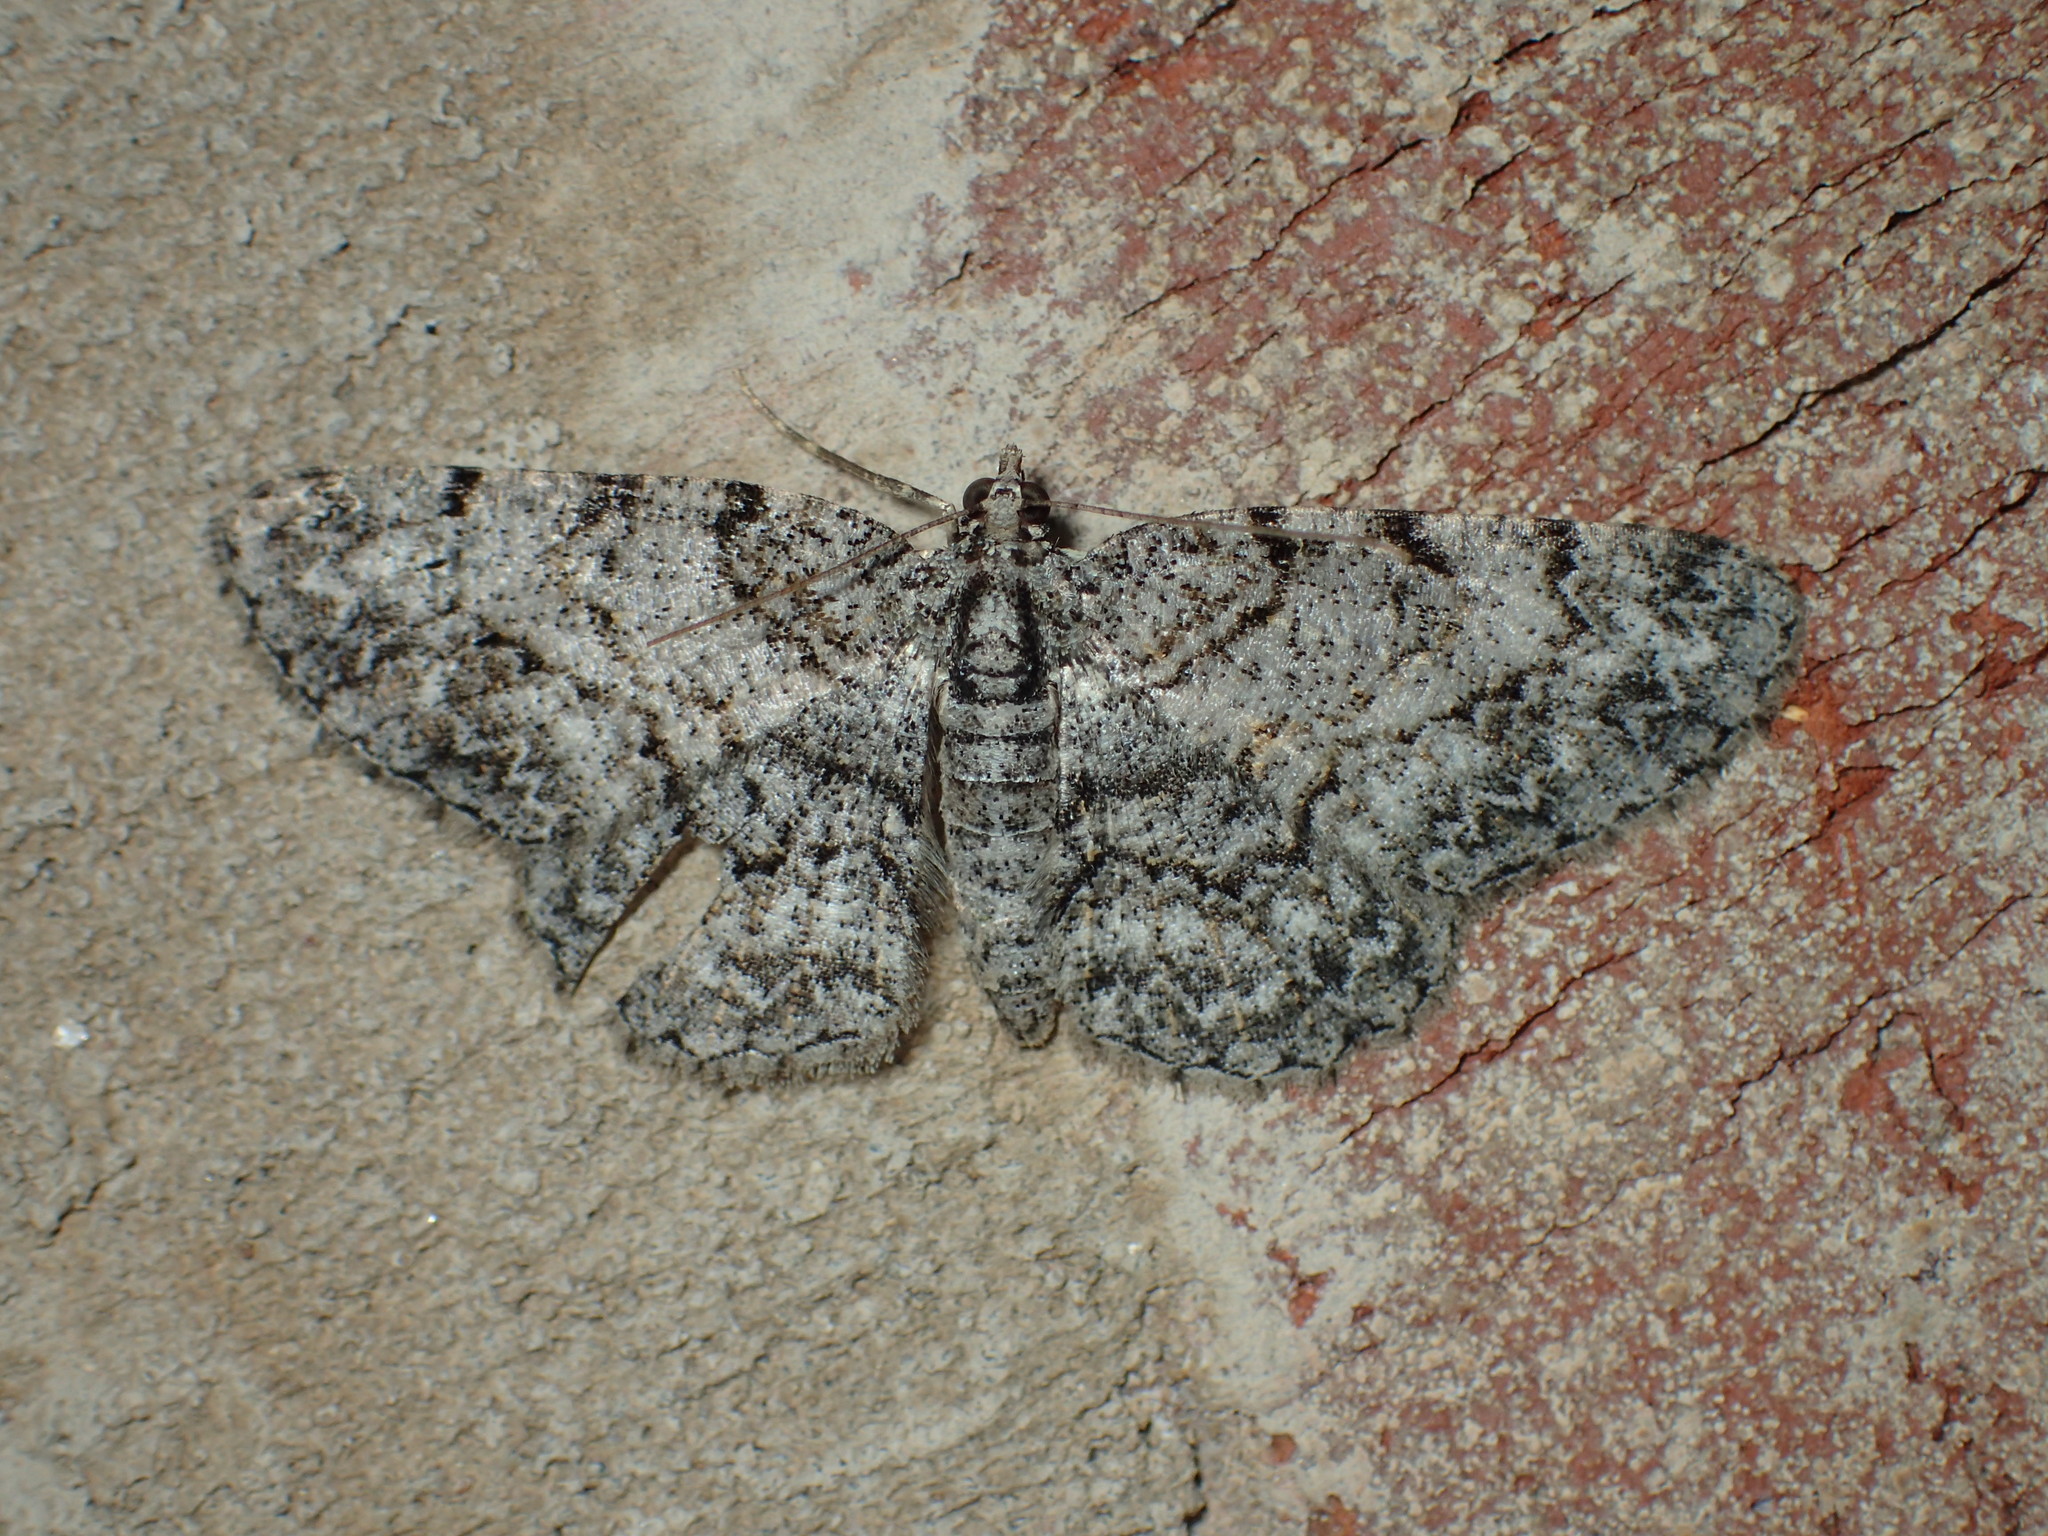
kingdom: Animalia
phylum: Arthropoda
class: Insecta
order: Lepidoptera
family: Geometridae
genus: Protoboarmia
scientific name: Protoboarmia porcelaria
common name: Porcelain gray
